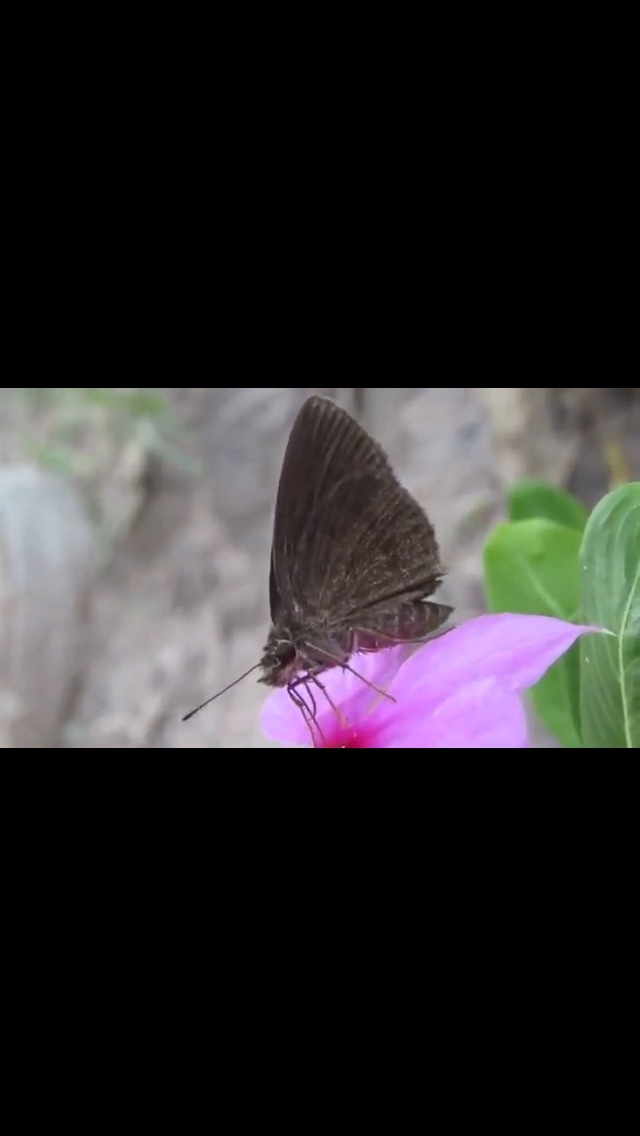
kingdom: Animalia
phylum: Arthropoda
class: Insecta
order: Lepidoptera
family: Hesperiidae
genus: Astictopterus
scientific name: Astictopterus jama
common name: Forest hopper
